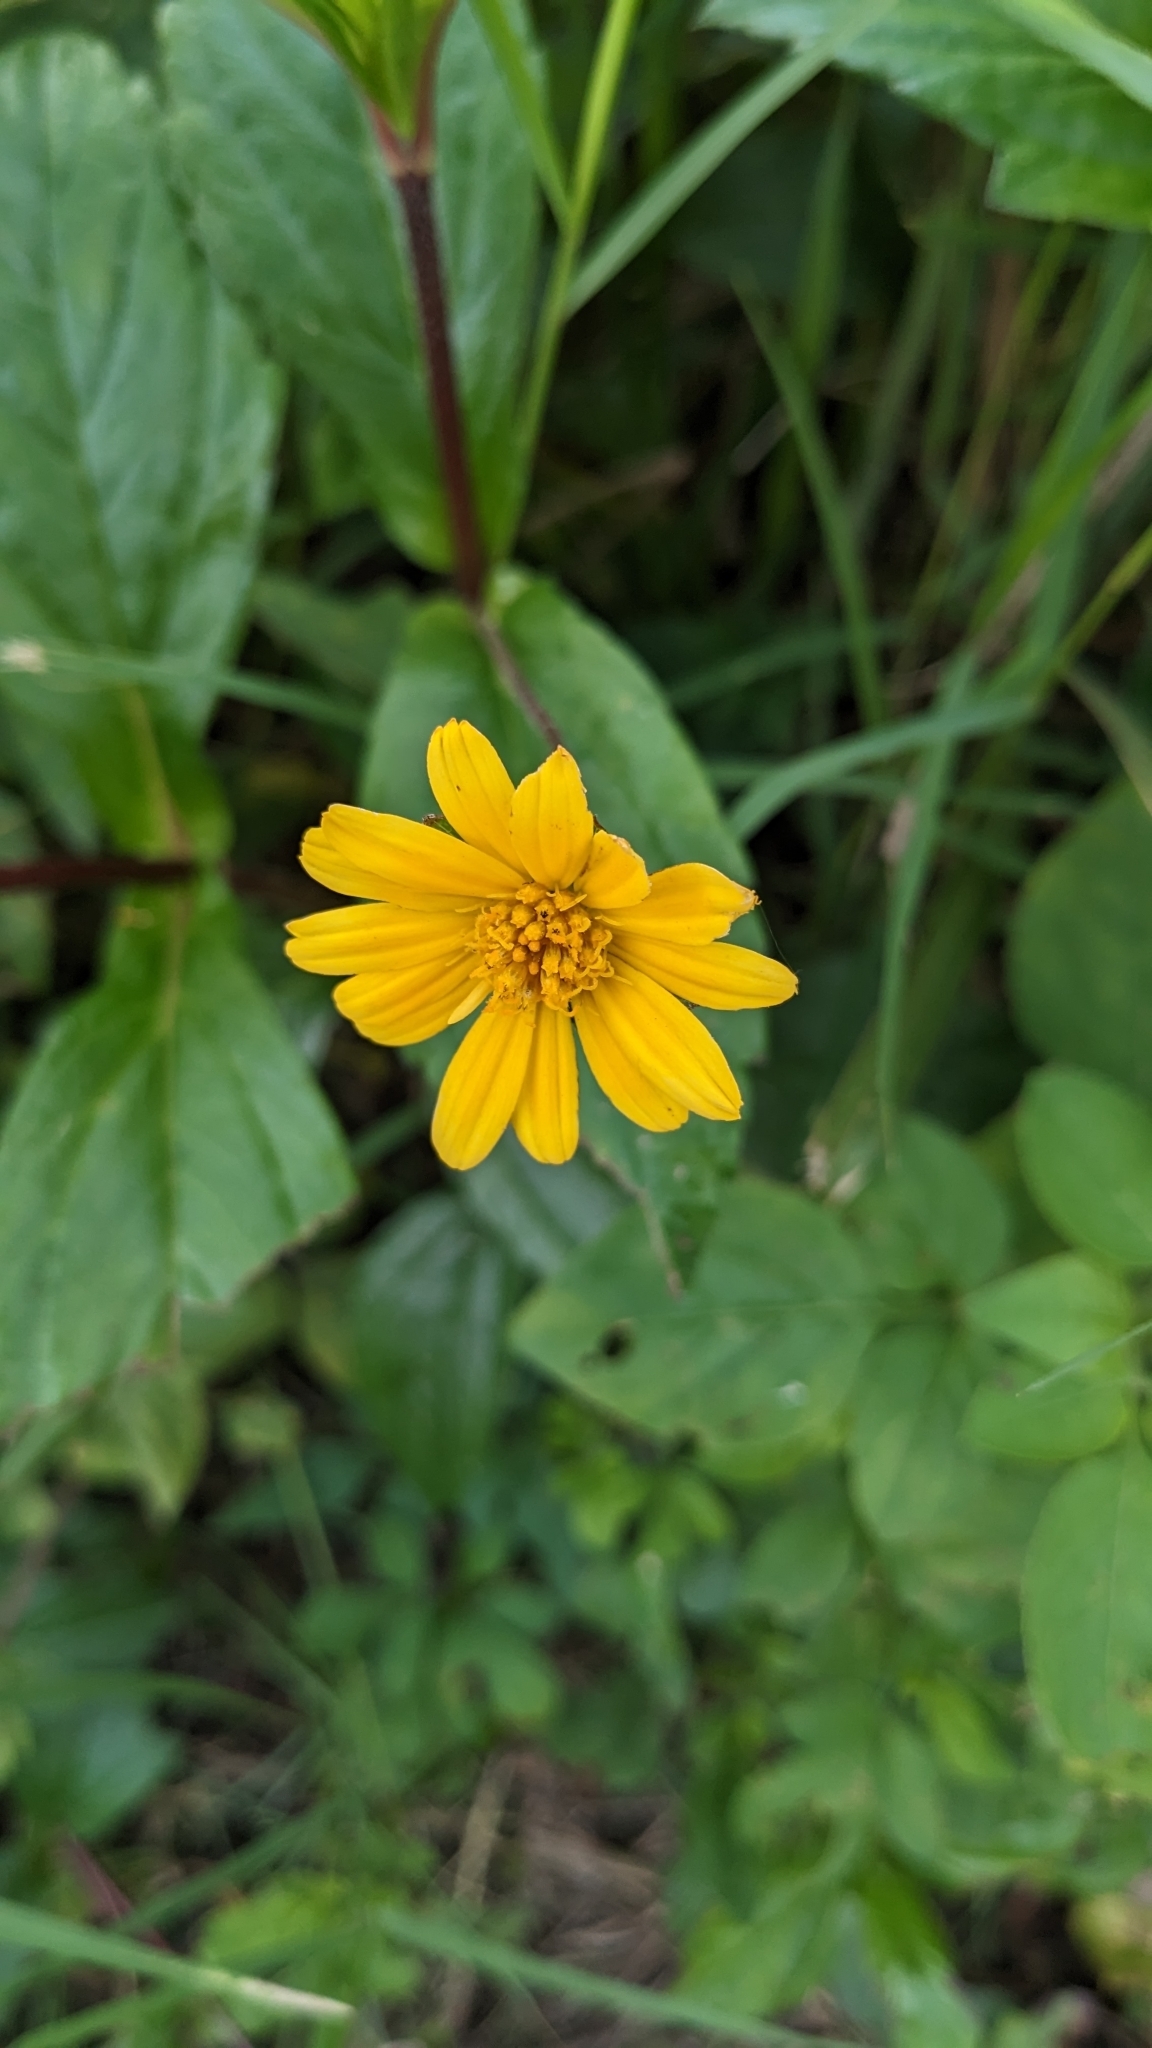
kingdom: Plantae
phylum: Tracheophyta
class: Magnoliopsida
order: Asterales
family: Asteraceae
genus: Sphagneticola
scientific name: Sphagneticola trilobata
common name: Bay biscayne creeping-oxeye
